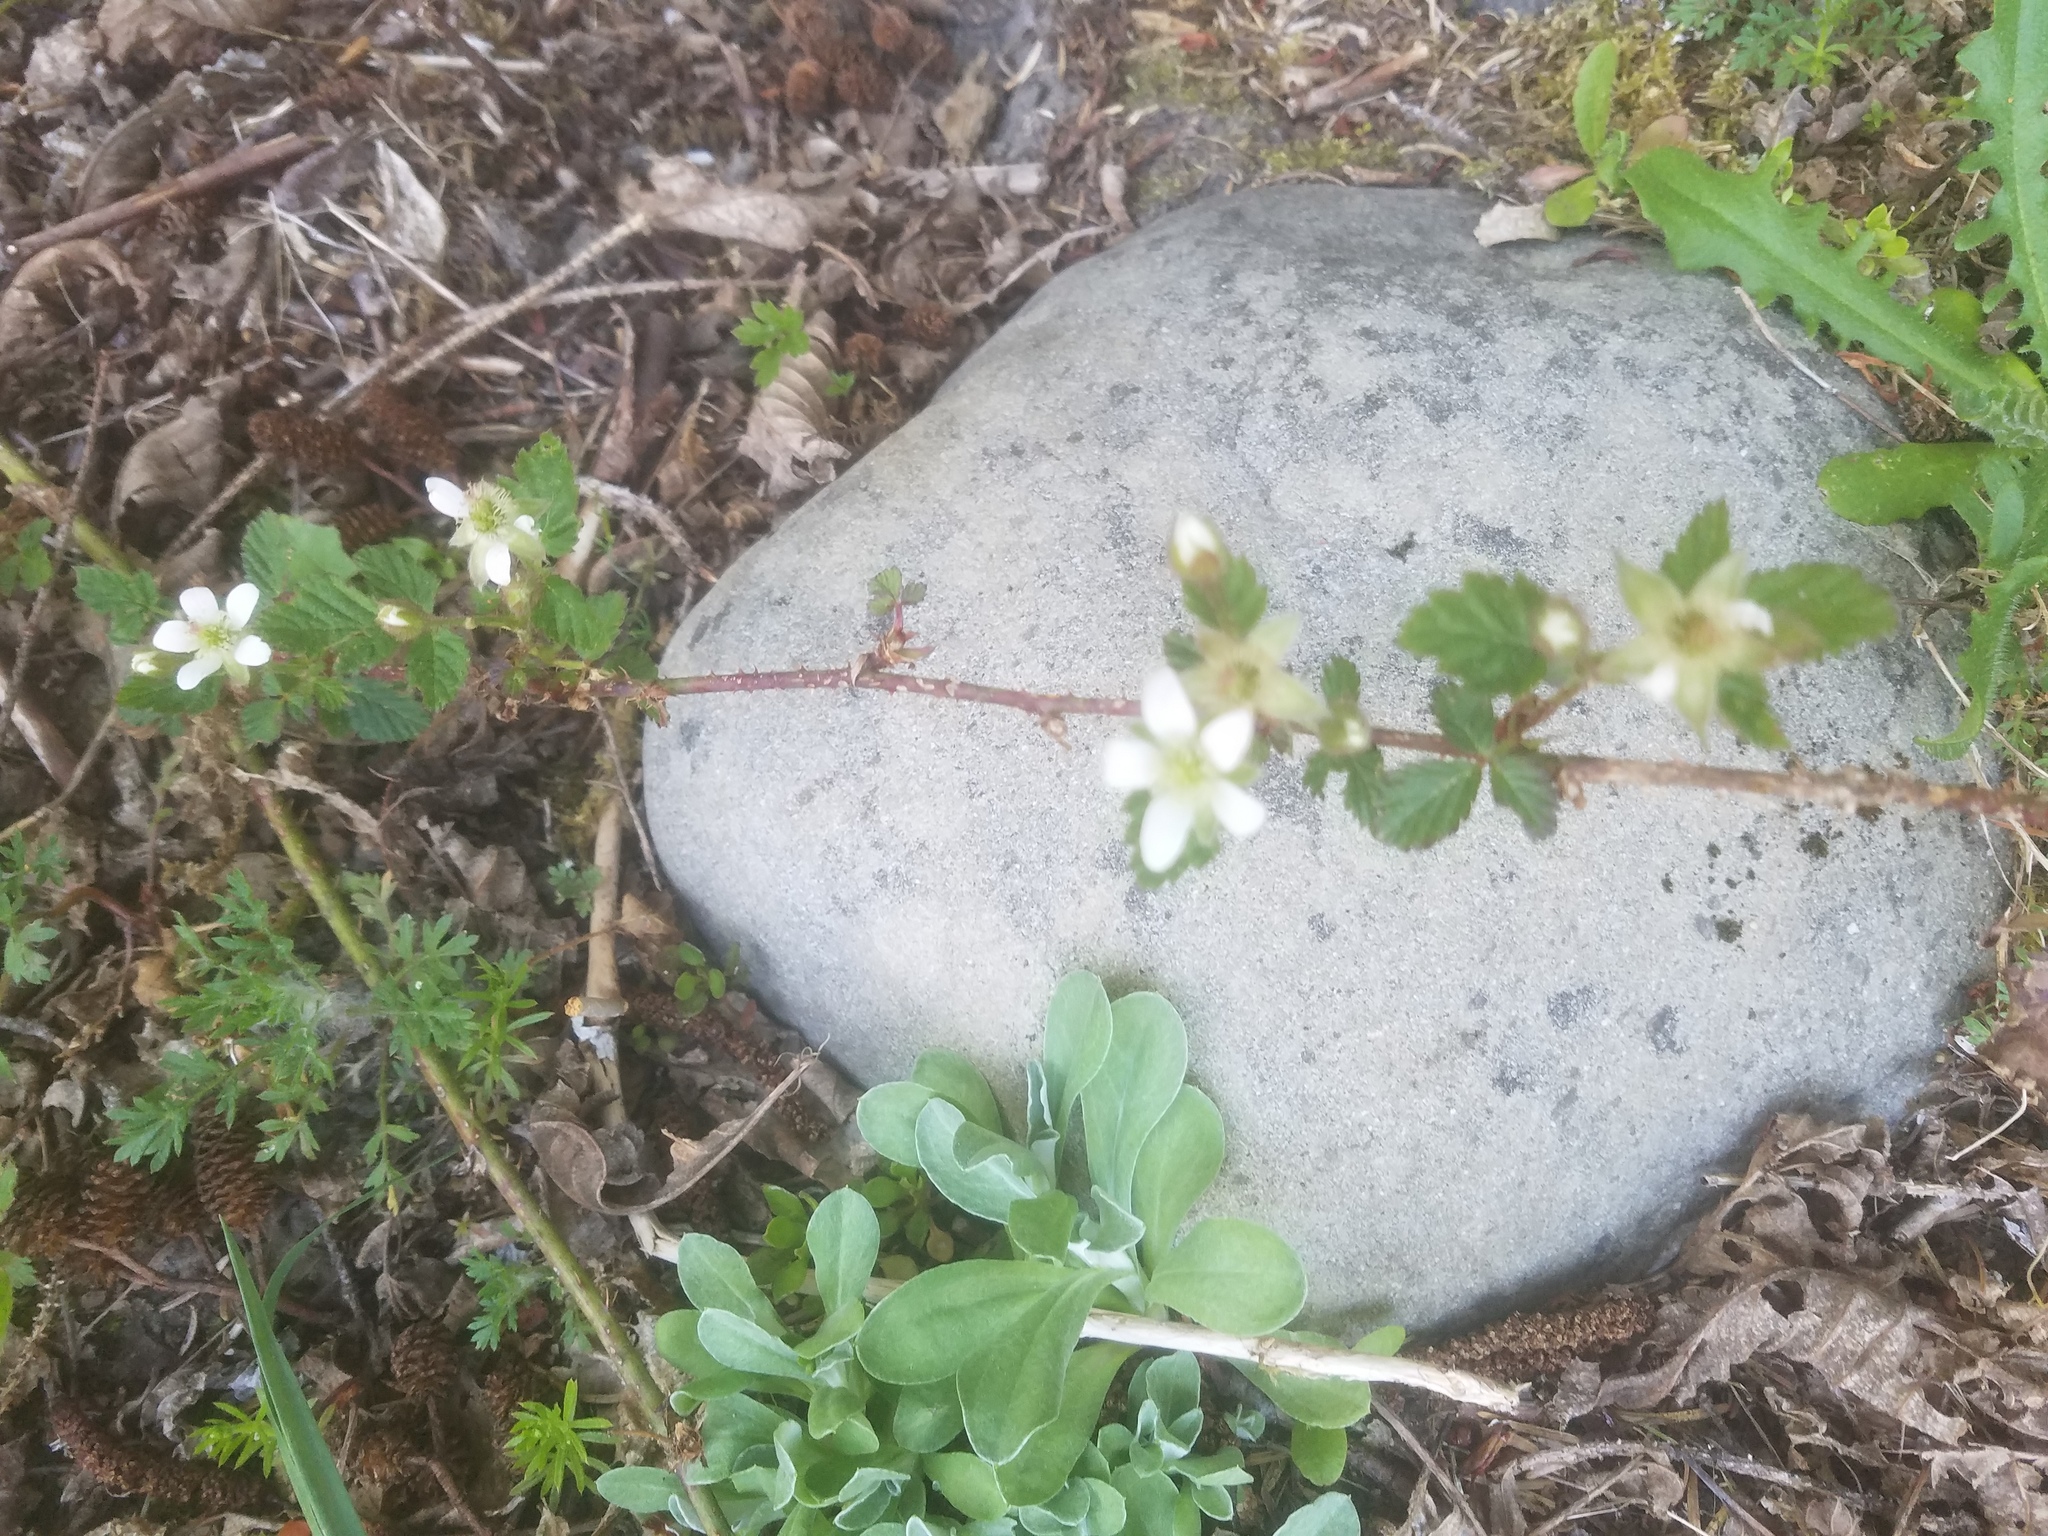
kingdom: Plantae
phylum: Tracheophyta
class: Magnoliopsida
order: Rosales
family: Rosaceae
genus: Rubus
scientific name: Rubus ursinus
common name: Pacific blackberry
